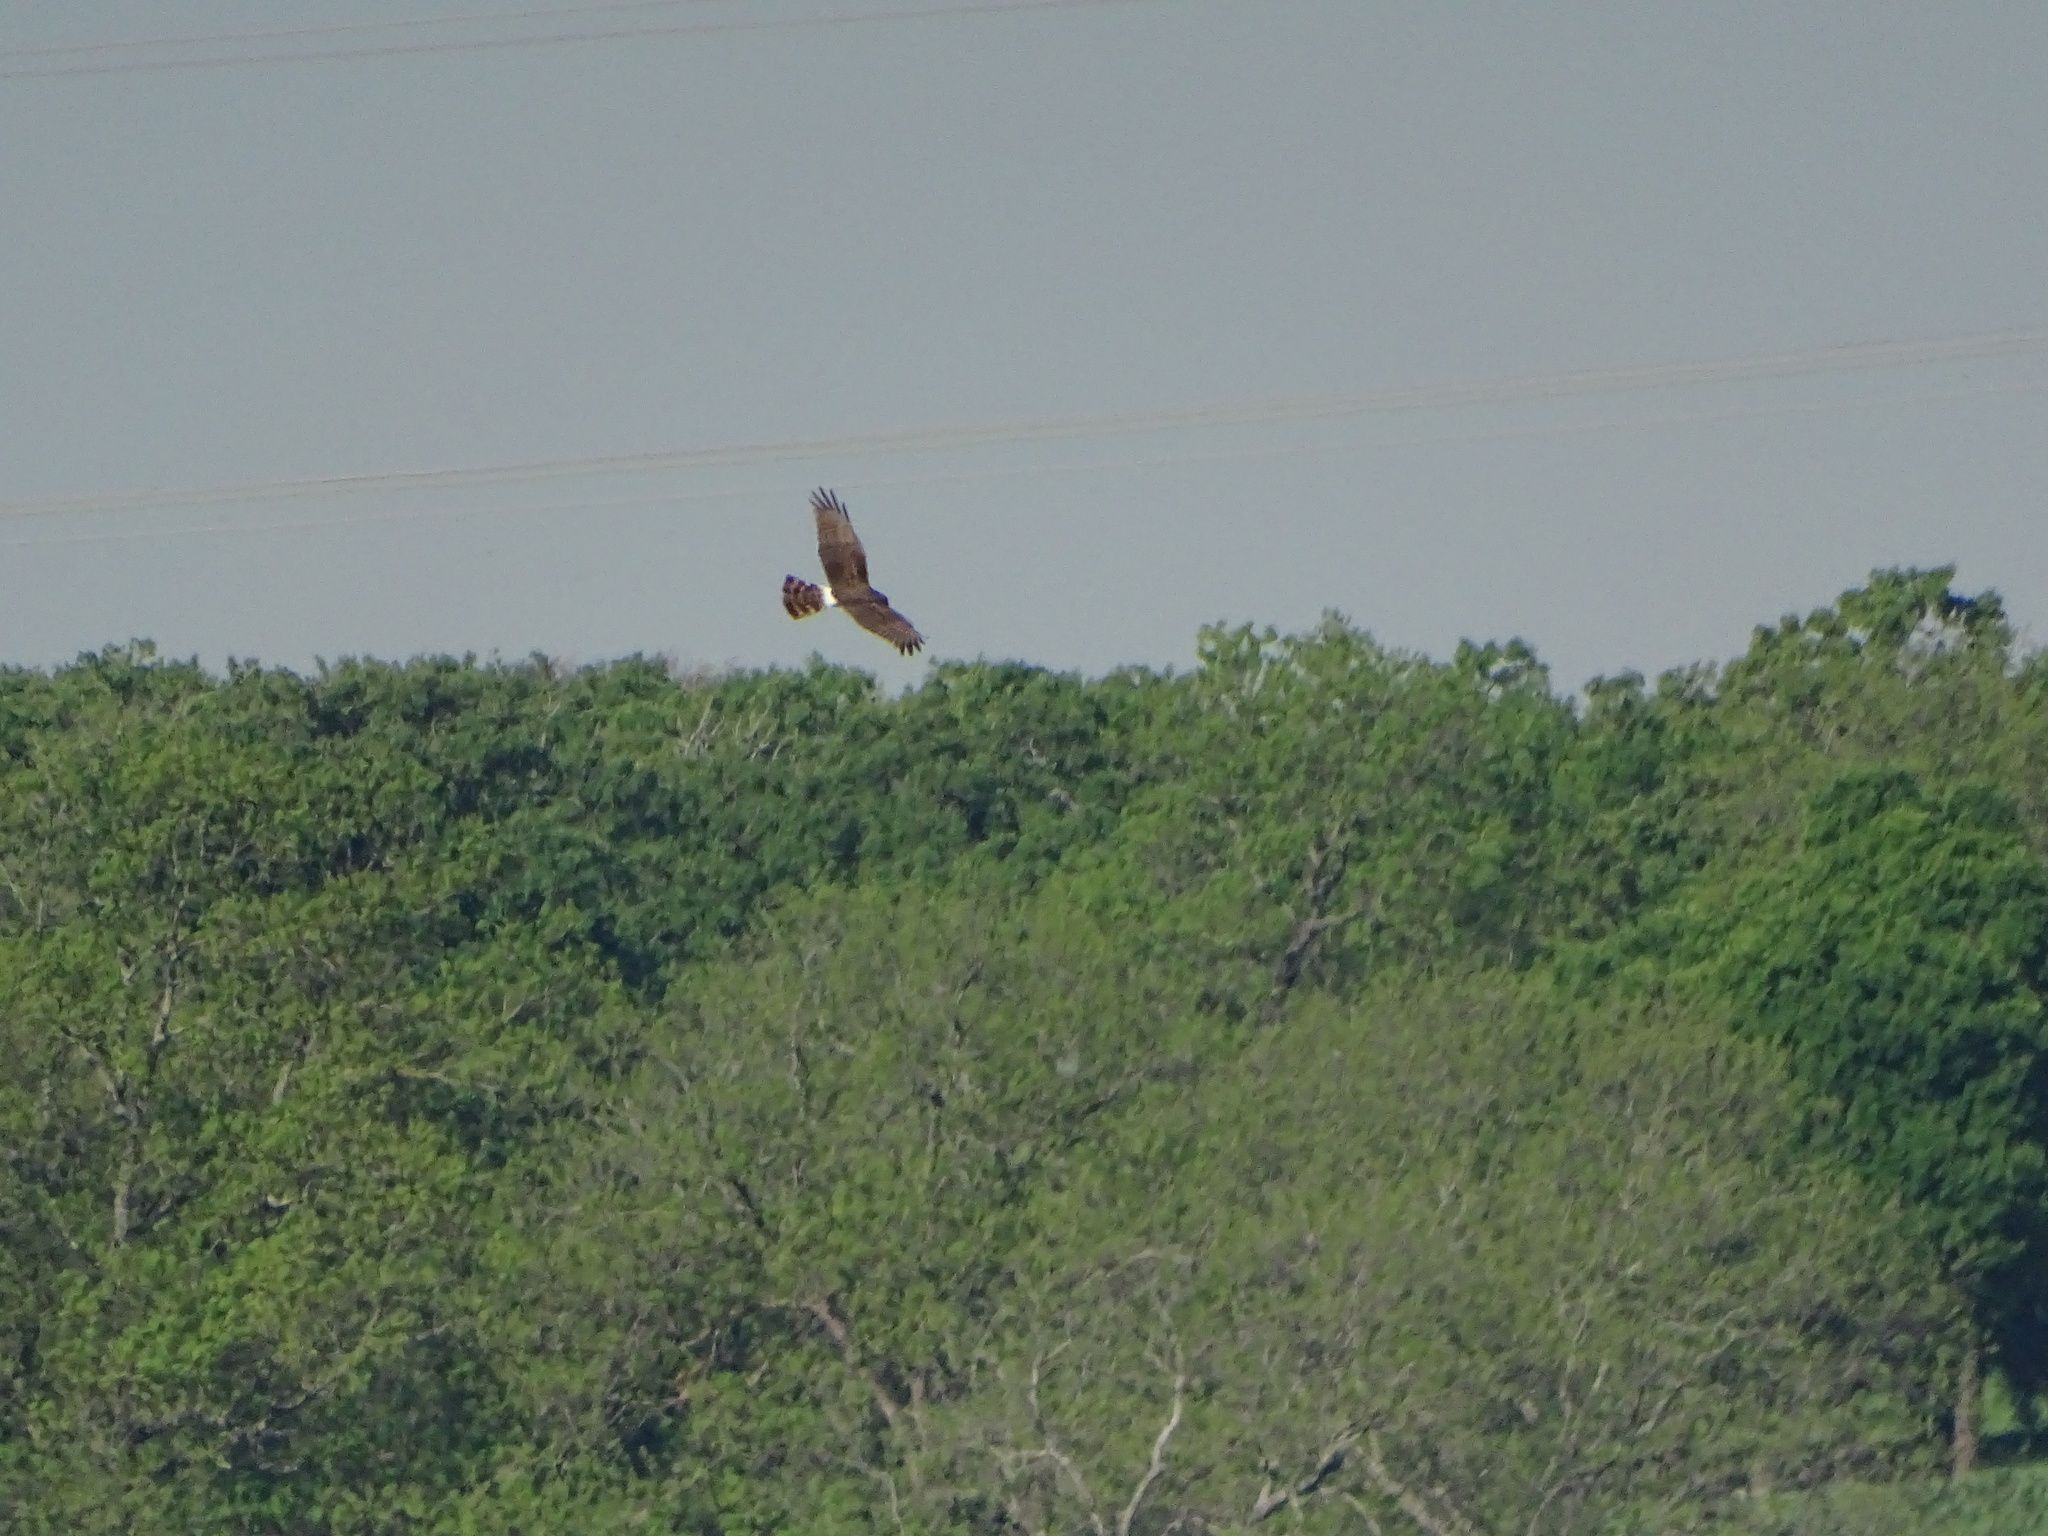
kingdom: Animalia
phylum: Chordata
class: Aves
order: Accipitriformes
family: Accipitridae
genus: Circus
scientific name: Circus cyaneus
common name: Hen harrier
